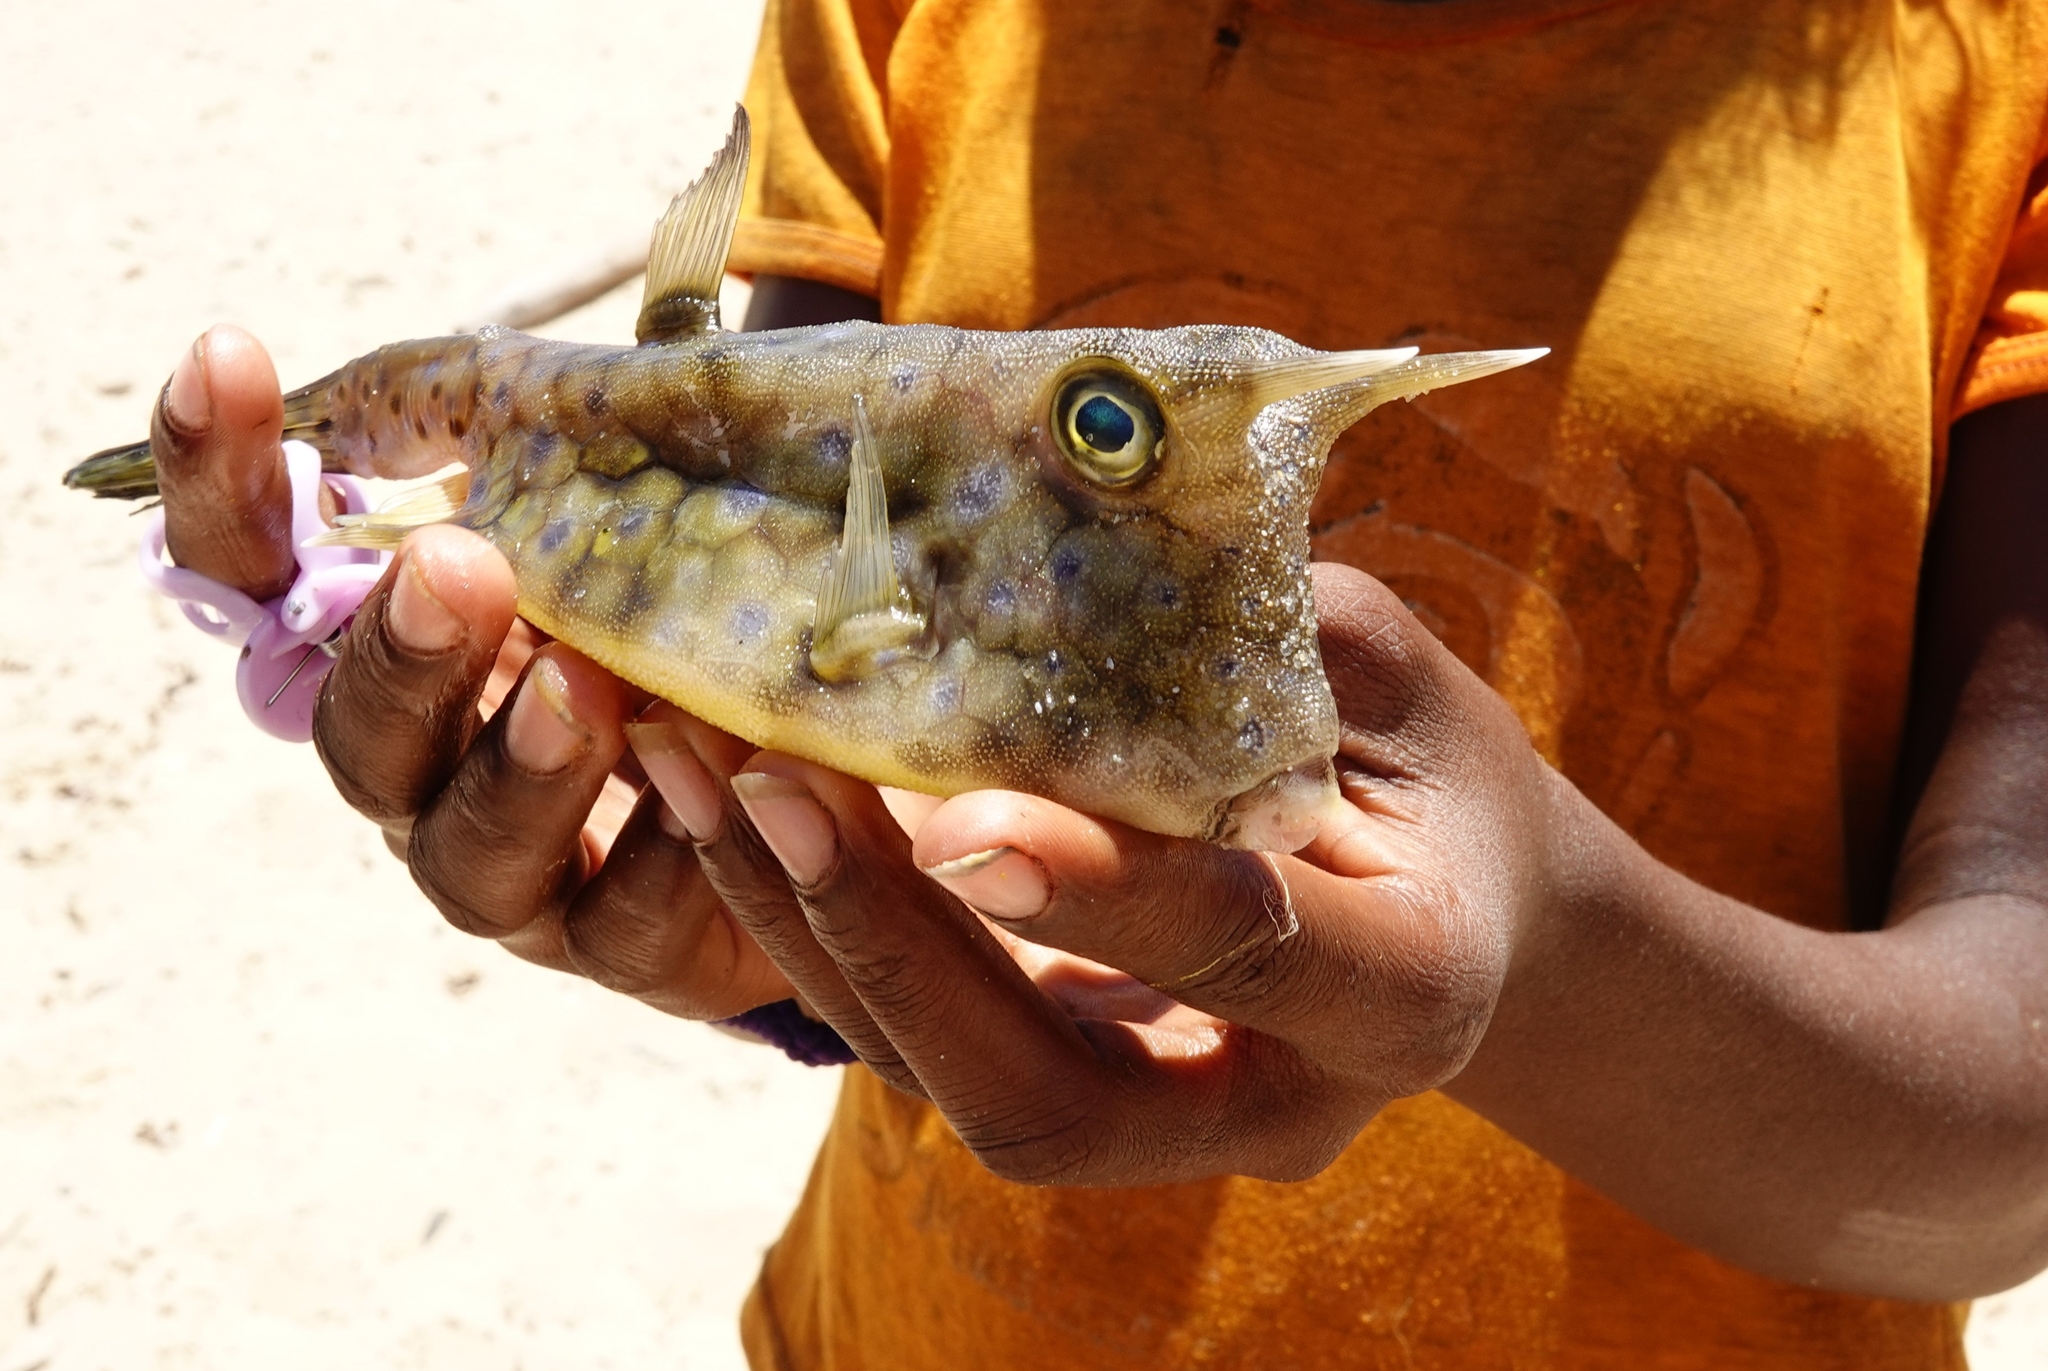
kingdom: Animalia
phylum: Chordata
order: Tetraodontiformes
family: Ostraciidae
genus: Lactoria
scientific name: Lactoria cornuta
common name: Longhorn cowfish
